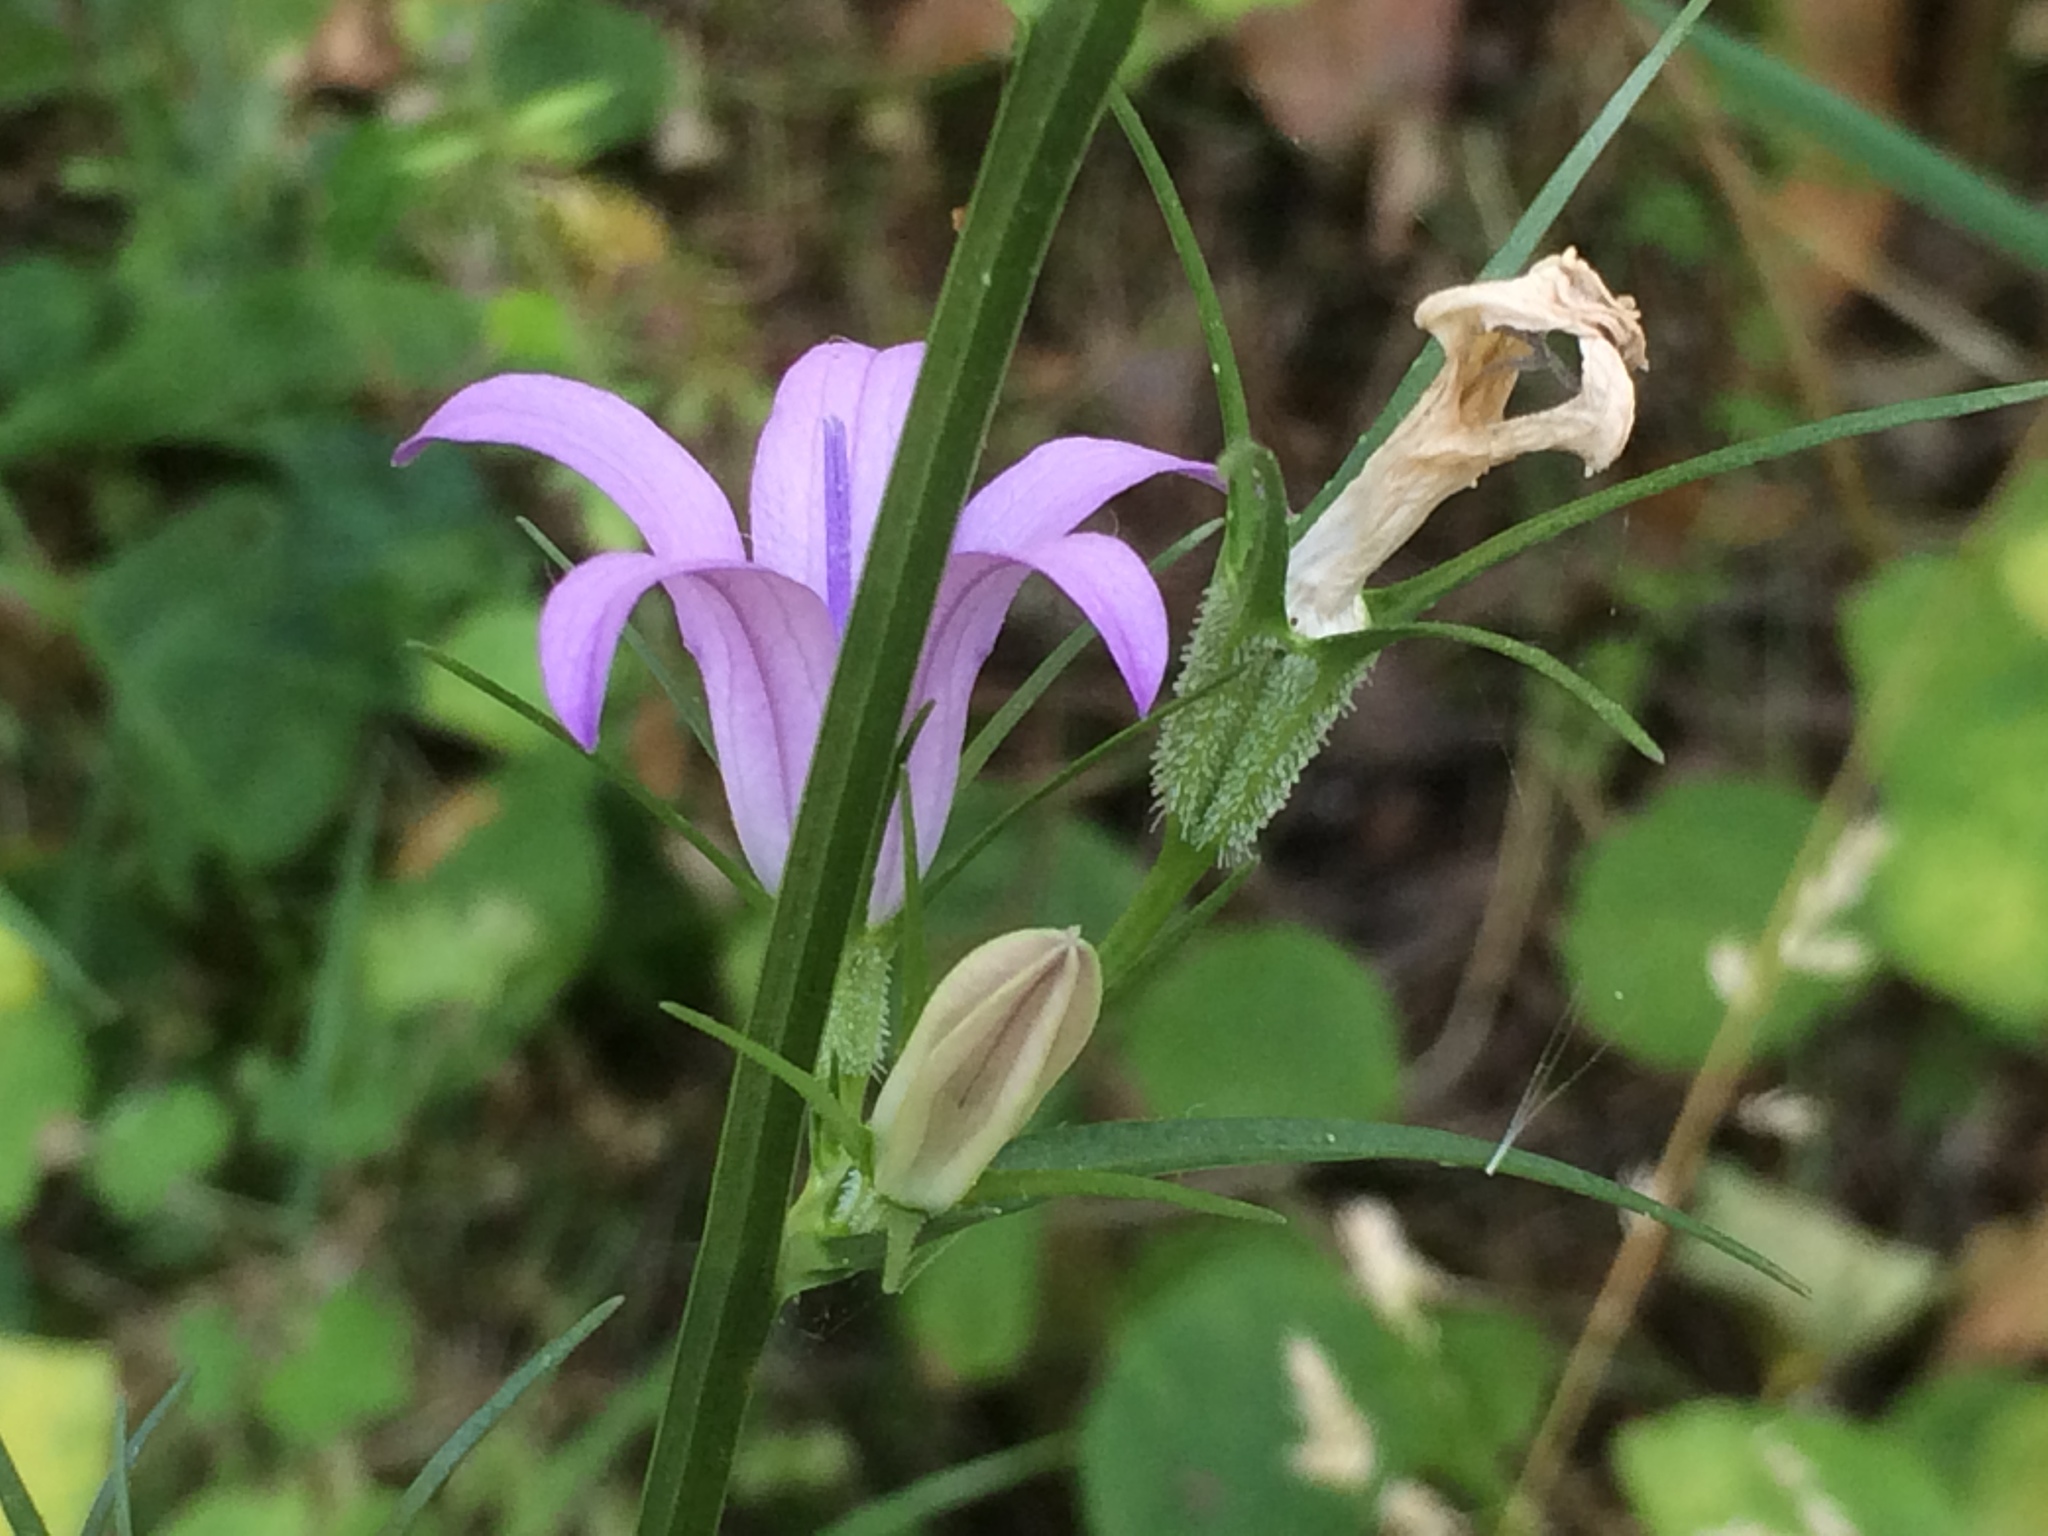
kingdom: Plantae
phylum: Tracheophyta
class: Magnoliopsida
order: Asterales
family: Campanulaceae
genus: Campanula
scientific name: Campanula rapunculus
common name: Rampion bellflower
